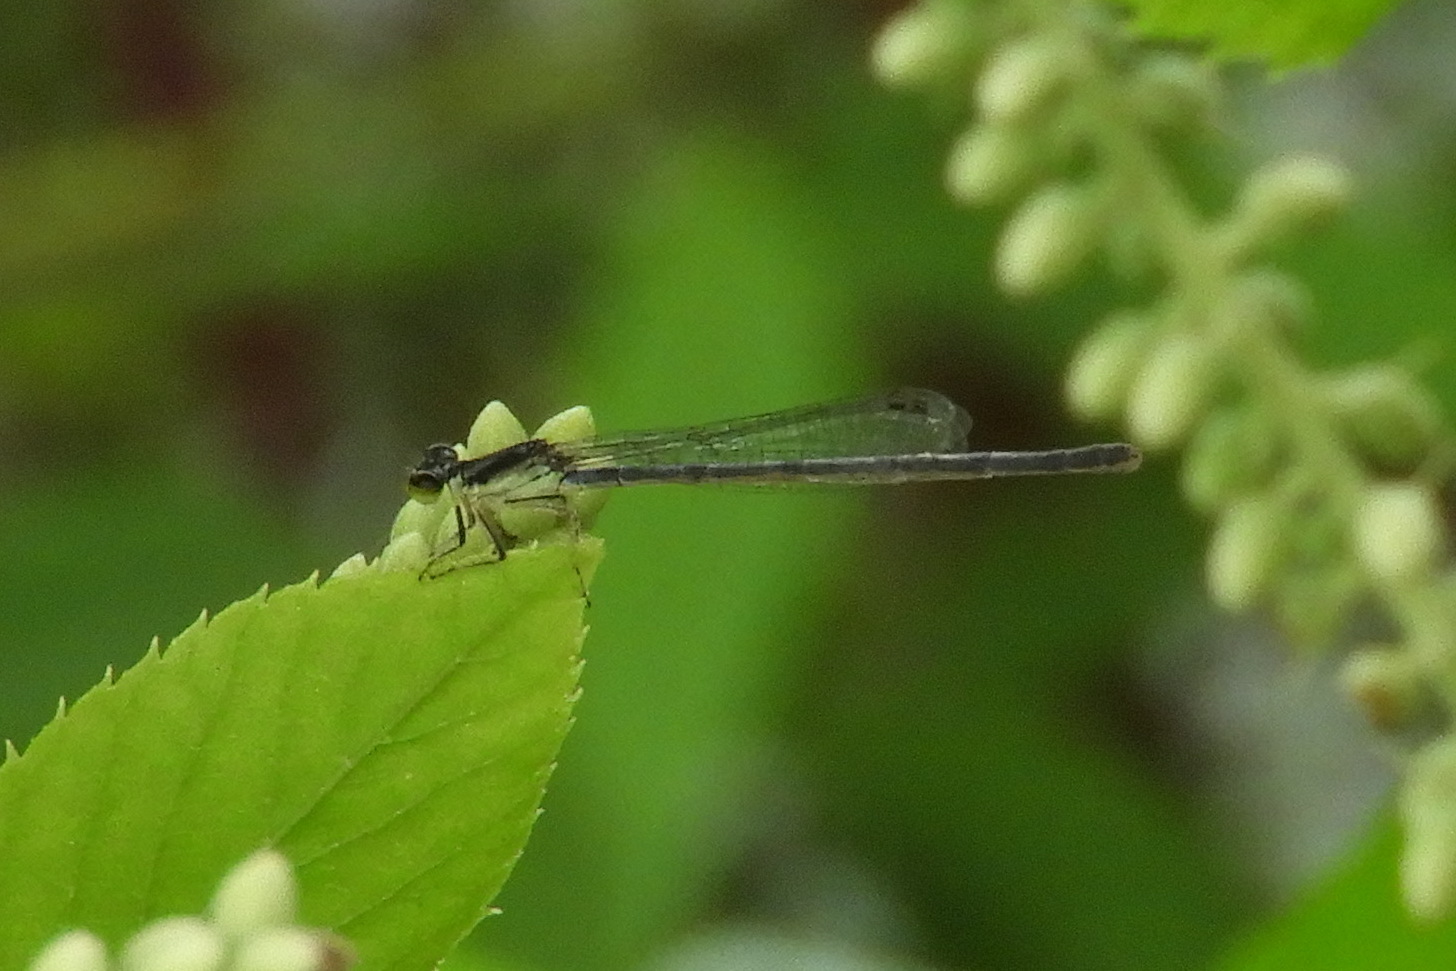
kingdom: Animalia
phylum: Arthropoda
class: Insecta
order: Odonata
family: Coenagrionidae
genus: Ischnura
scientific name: Ischnura posita
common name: Fragile forktail
